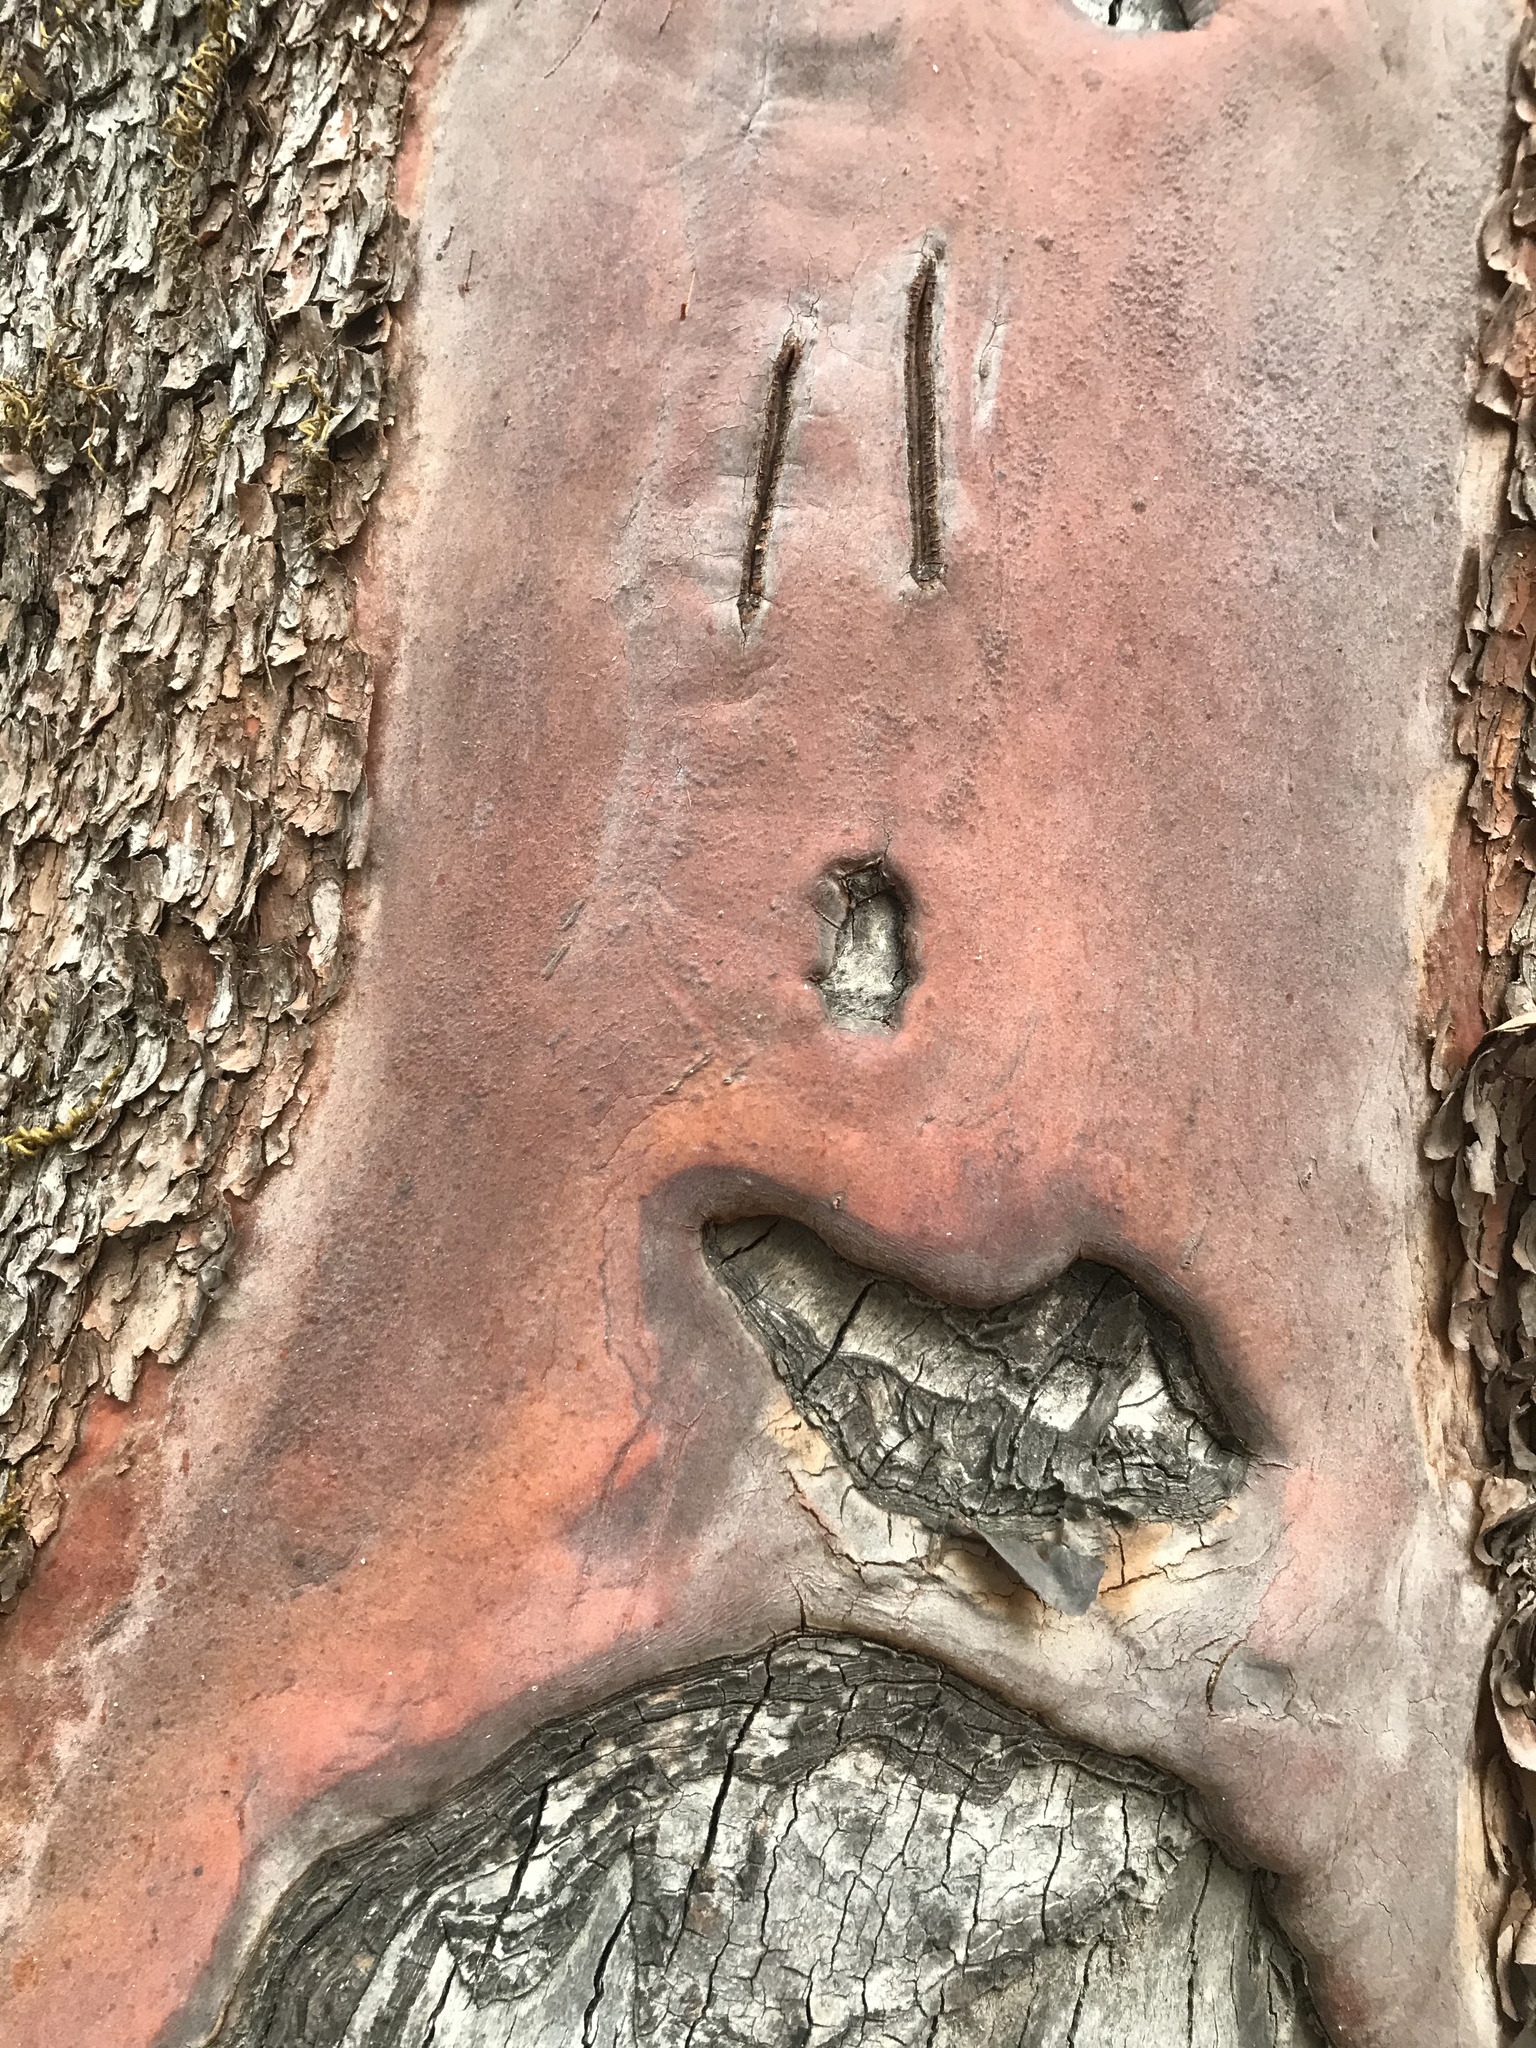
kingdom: Plantae
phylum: Tracheophyta
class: Magnoliopsida
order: Ericales
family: Ericaceae
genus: Arbutus
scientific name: Arbutus menziesii
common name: Pacific madrone
